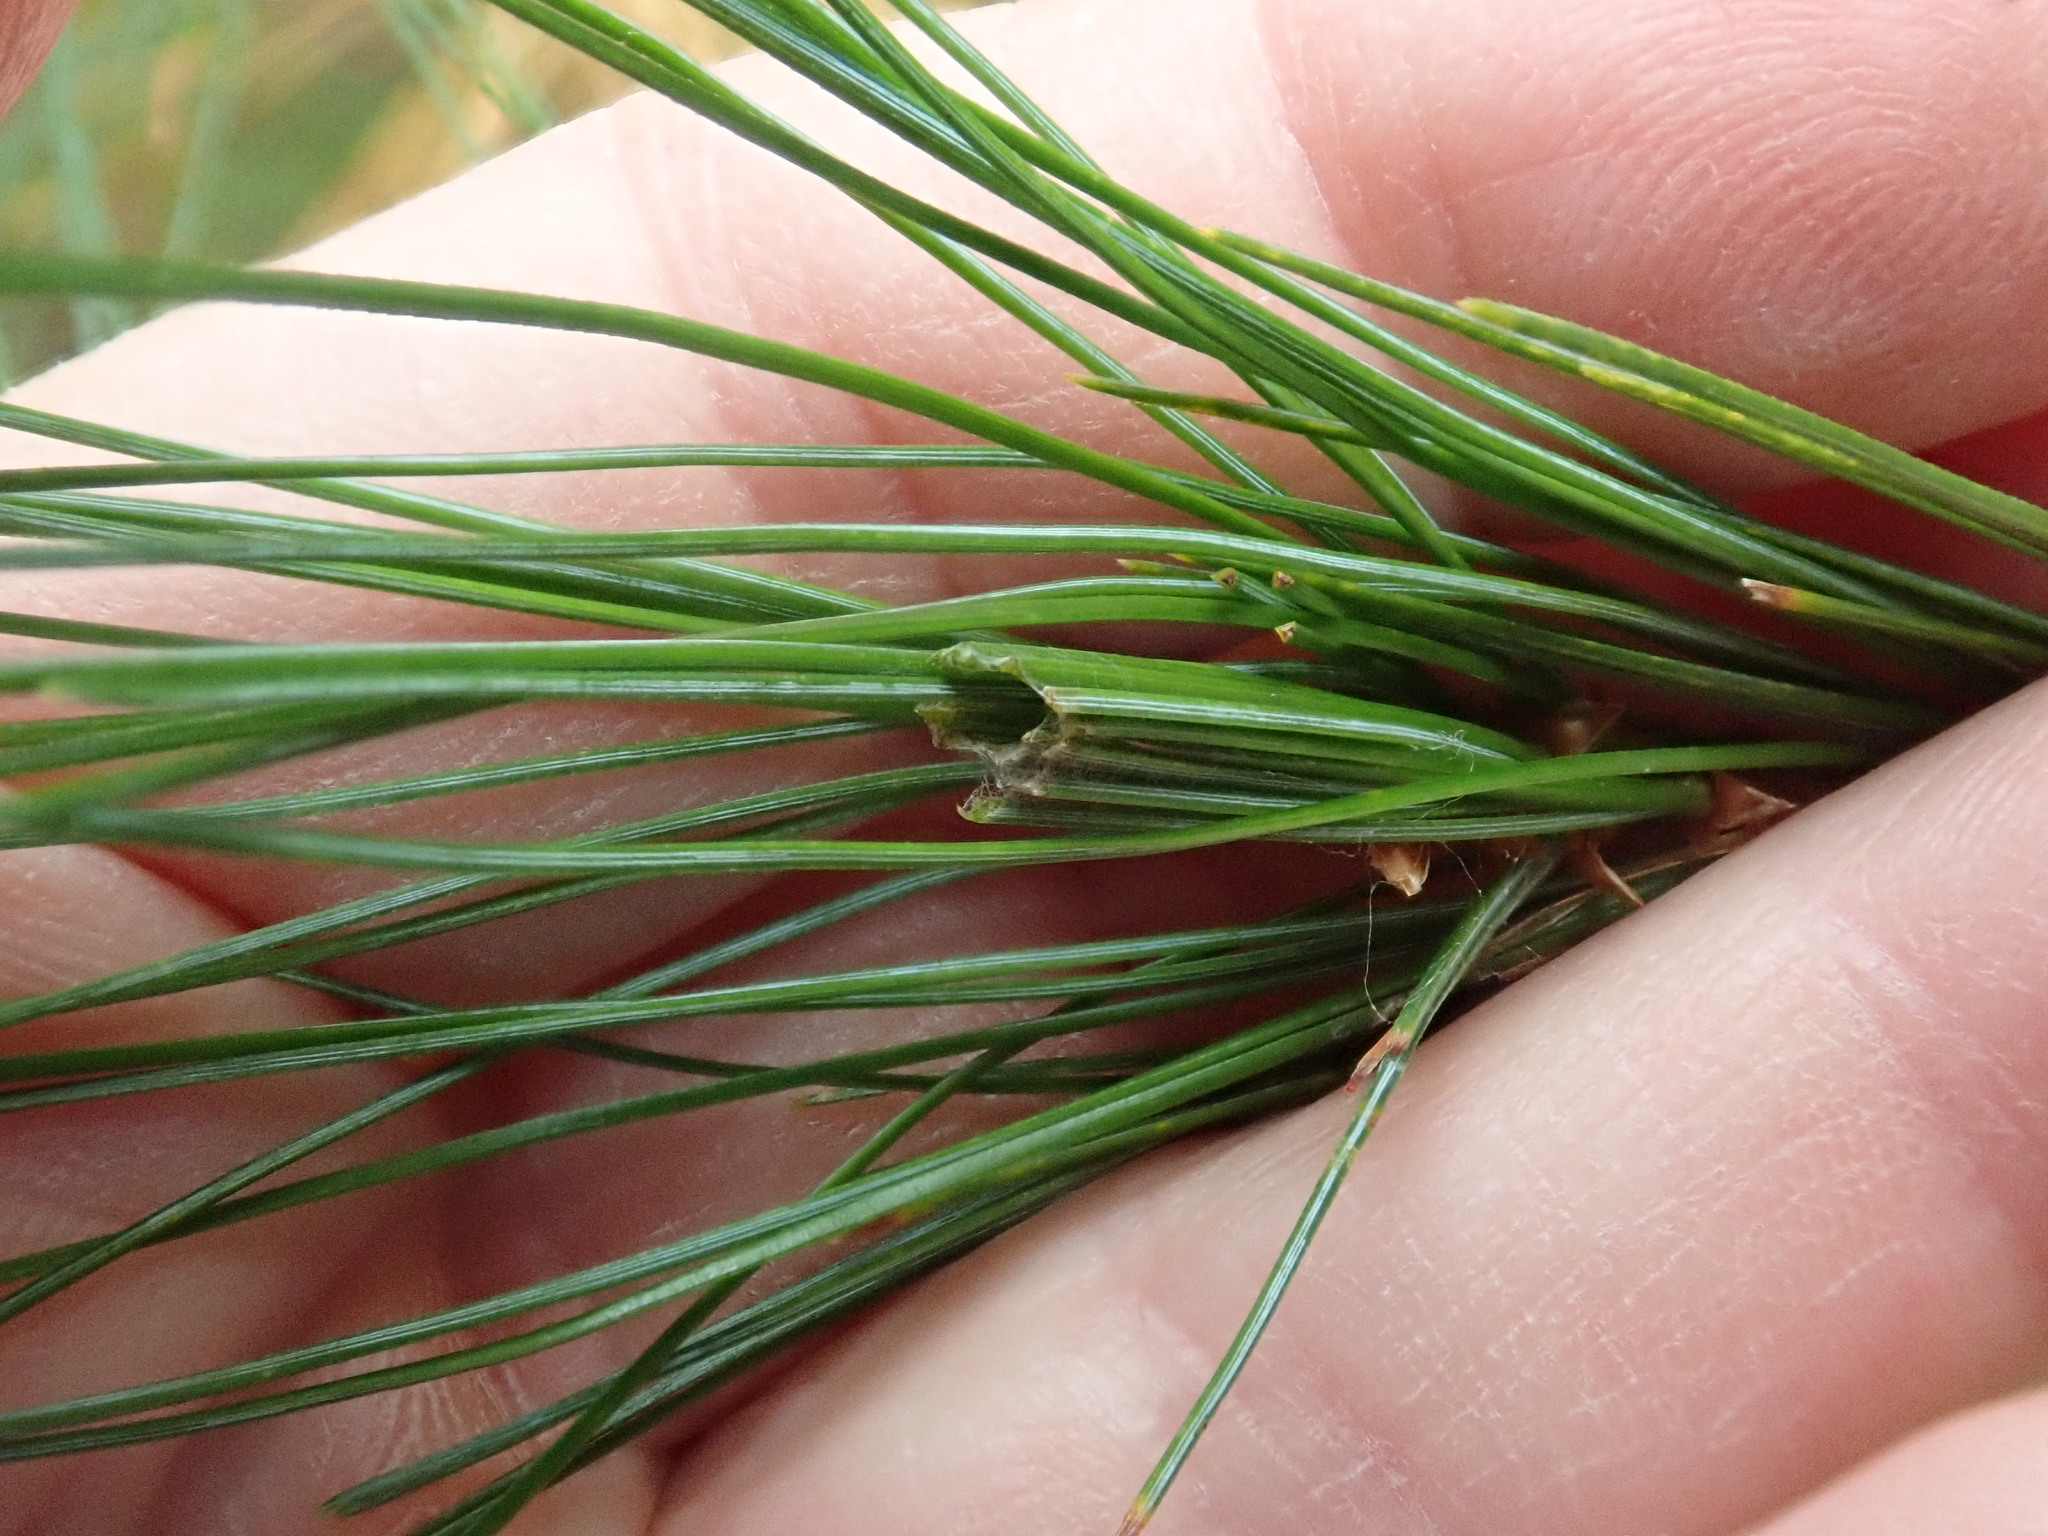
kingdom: Animalia
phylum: Arthropoda
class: Insecta
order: Lepidoptera
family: Tortricidae
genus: Argyrotaenia
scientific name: Argyrotaenia pinatubana
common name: Pine tube moth
